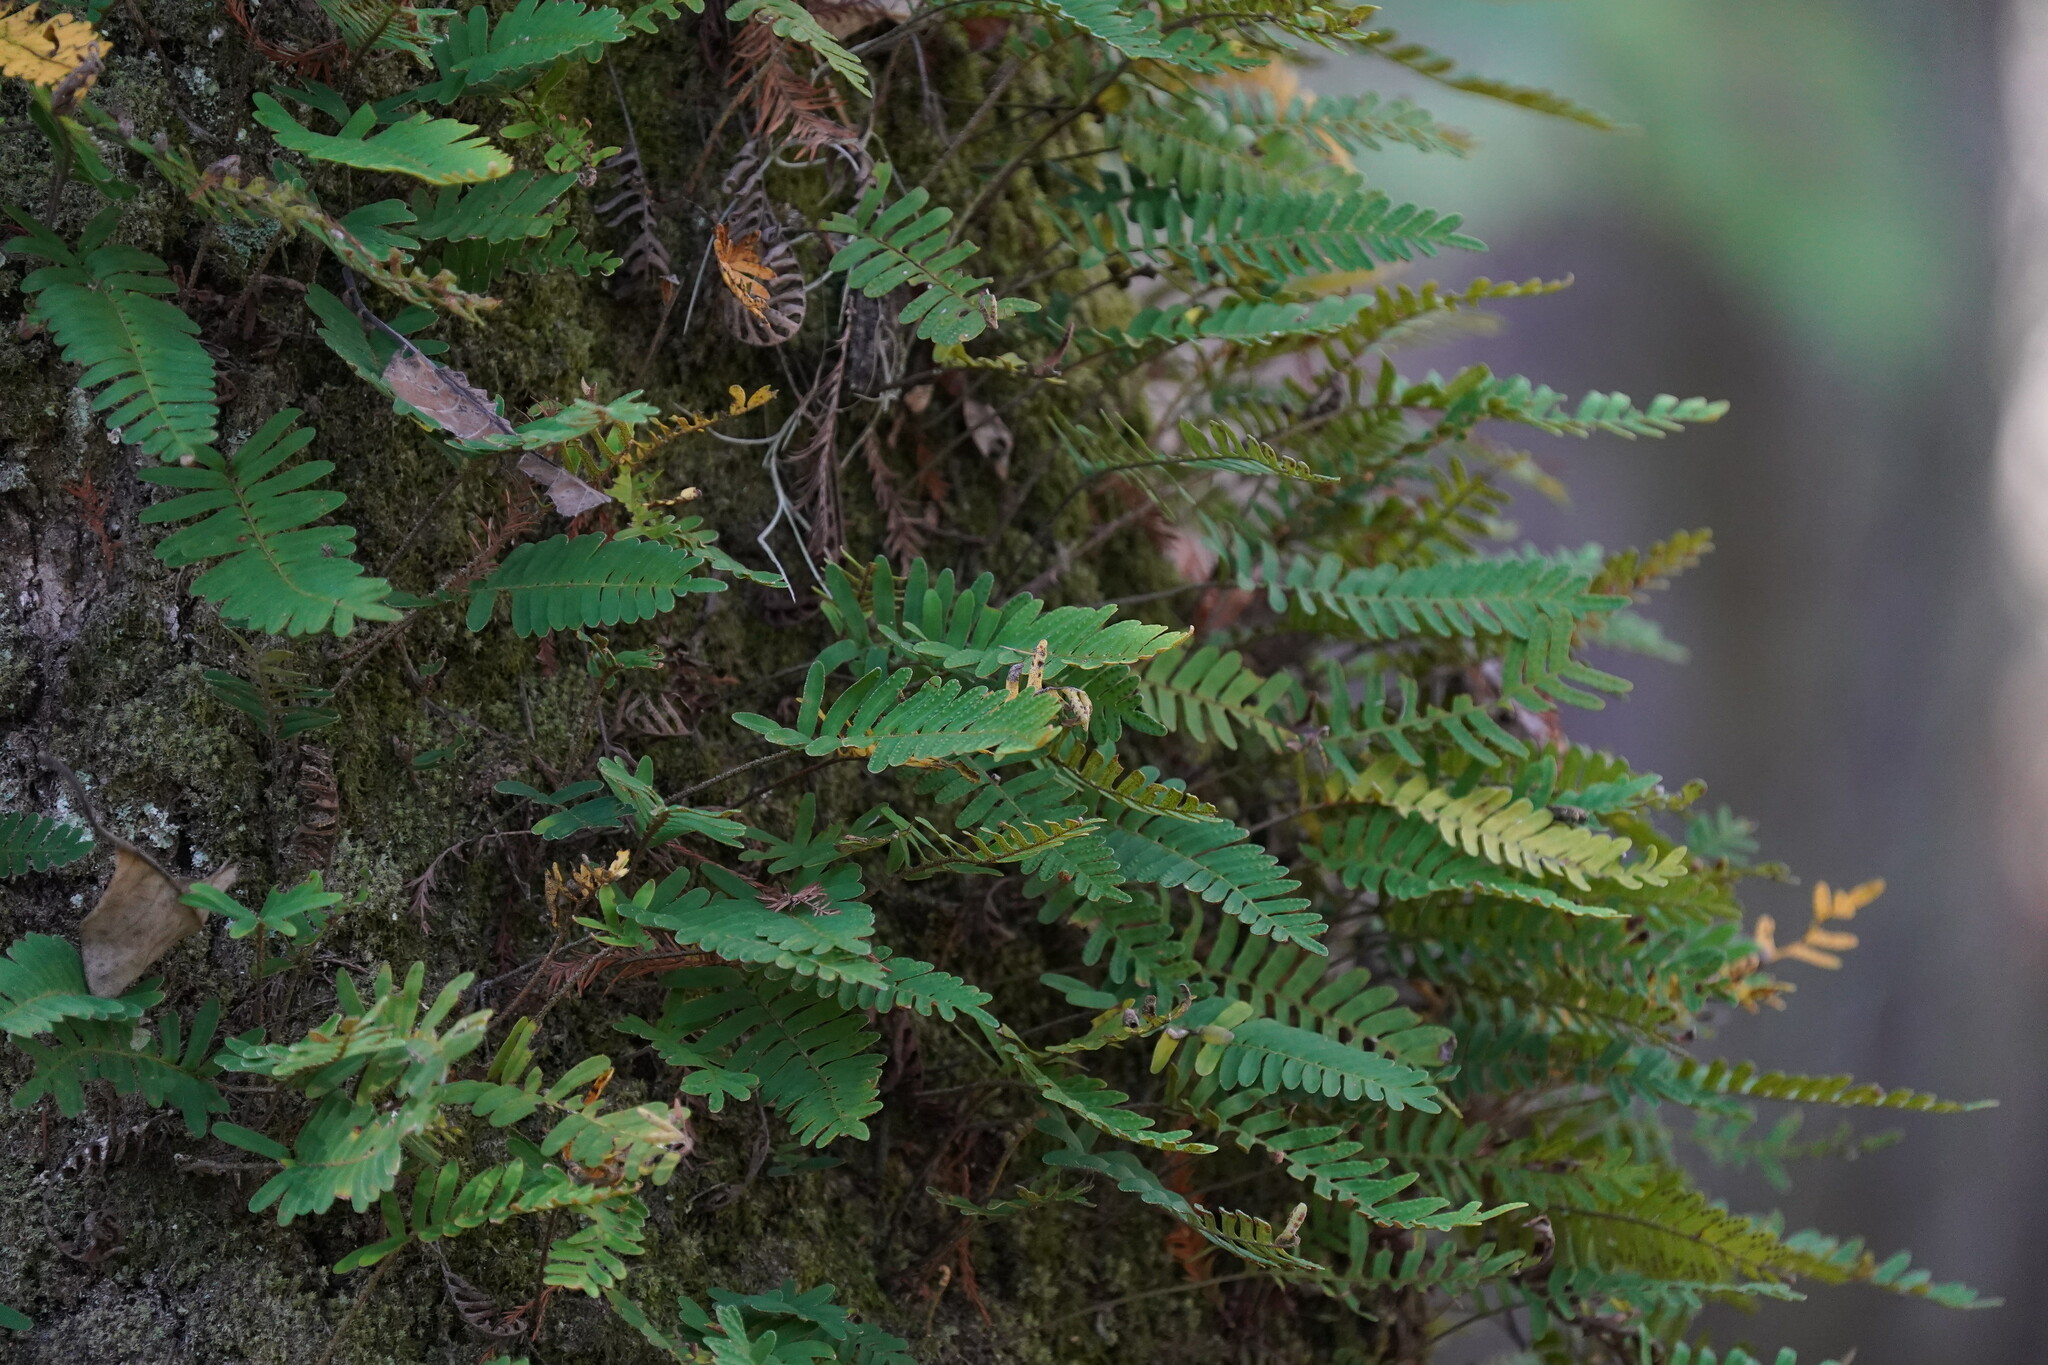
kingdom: Plantae
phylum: Tracheophyta
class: Polypodiopsida
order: Polypodiales
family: Polypodiaceae
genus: Pleopeltis
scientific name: Pleopeltis michauxiana
